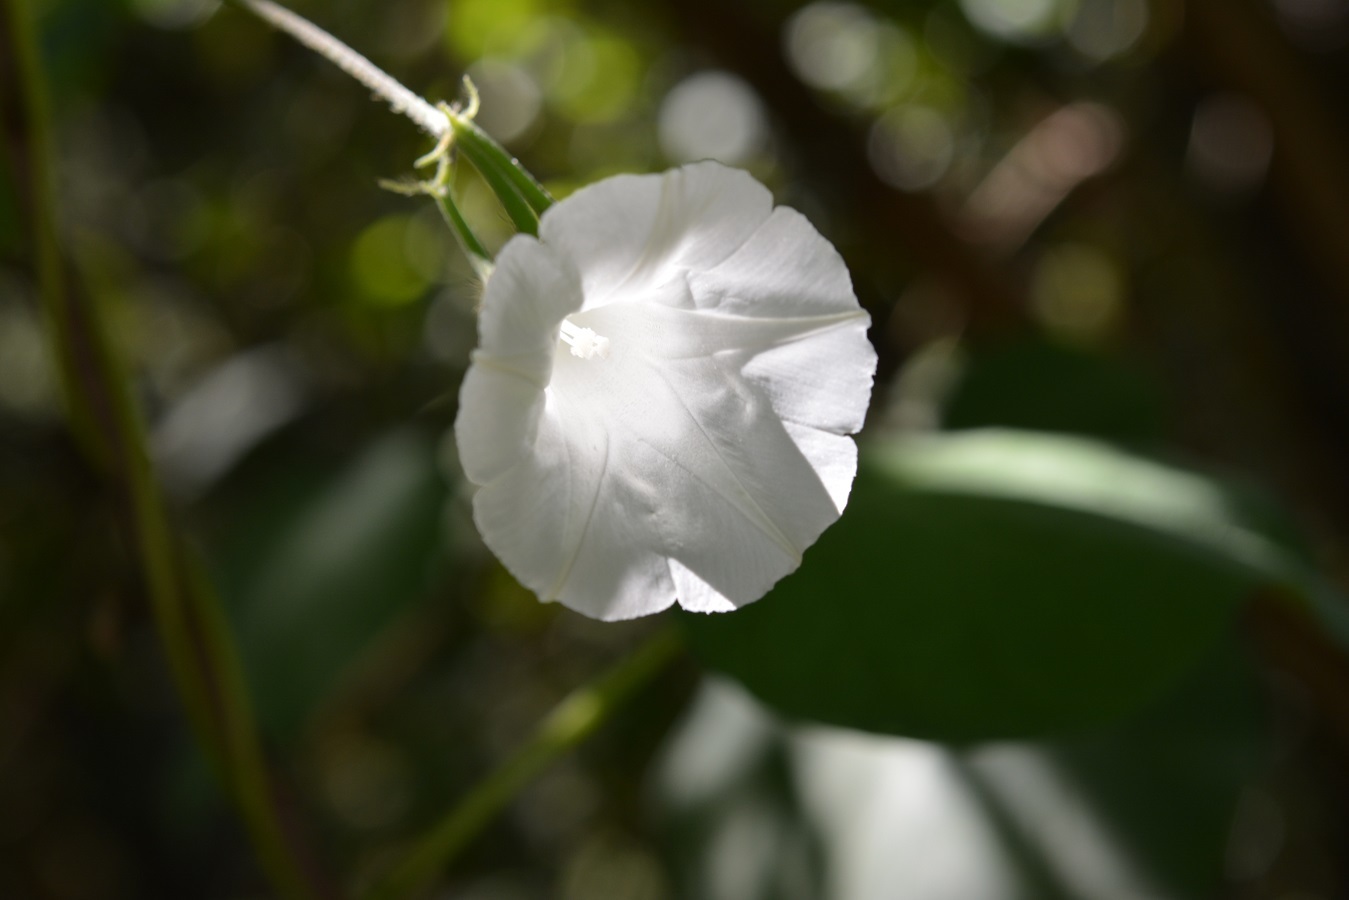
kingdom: Plantae
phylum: Tracheophyta
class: Magnoliopsida
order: Solanales
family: Convolvulaceae
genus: Ipomoea
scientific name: Ipomoea purpurea
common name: Common morning-glory
